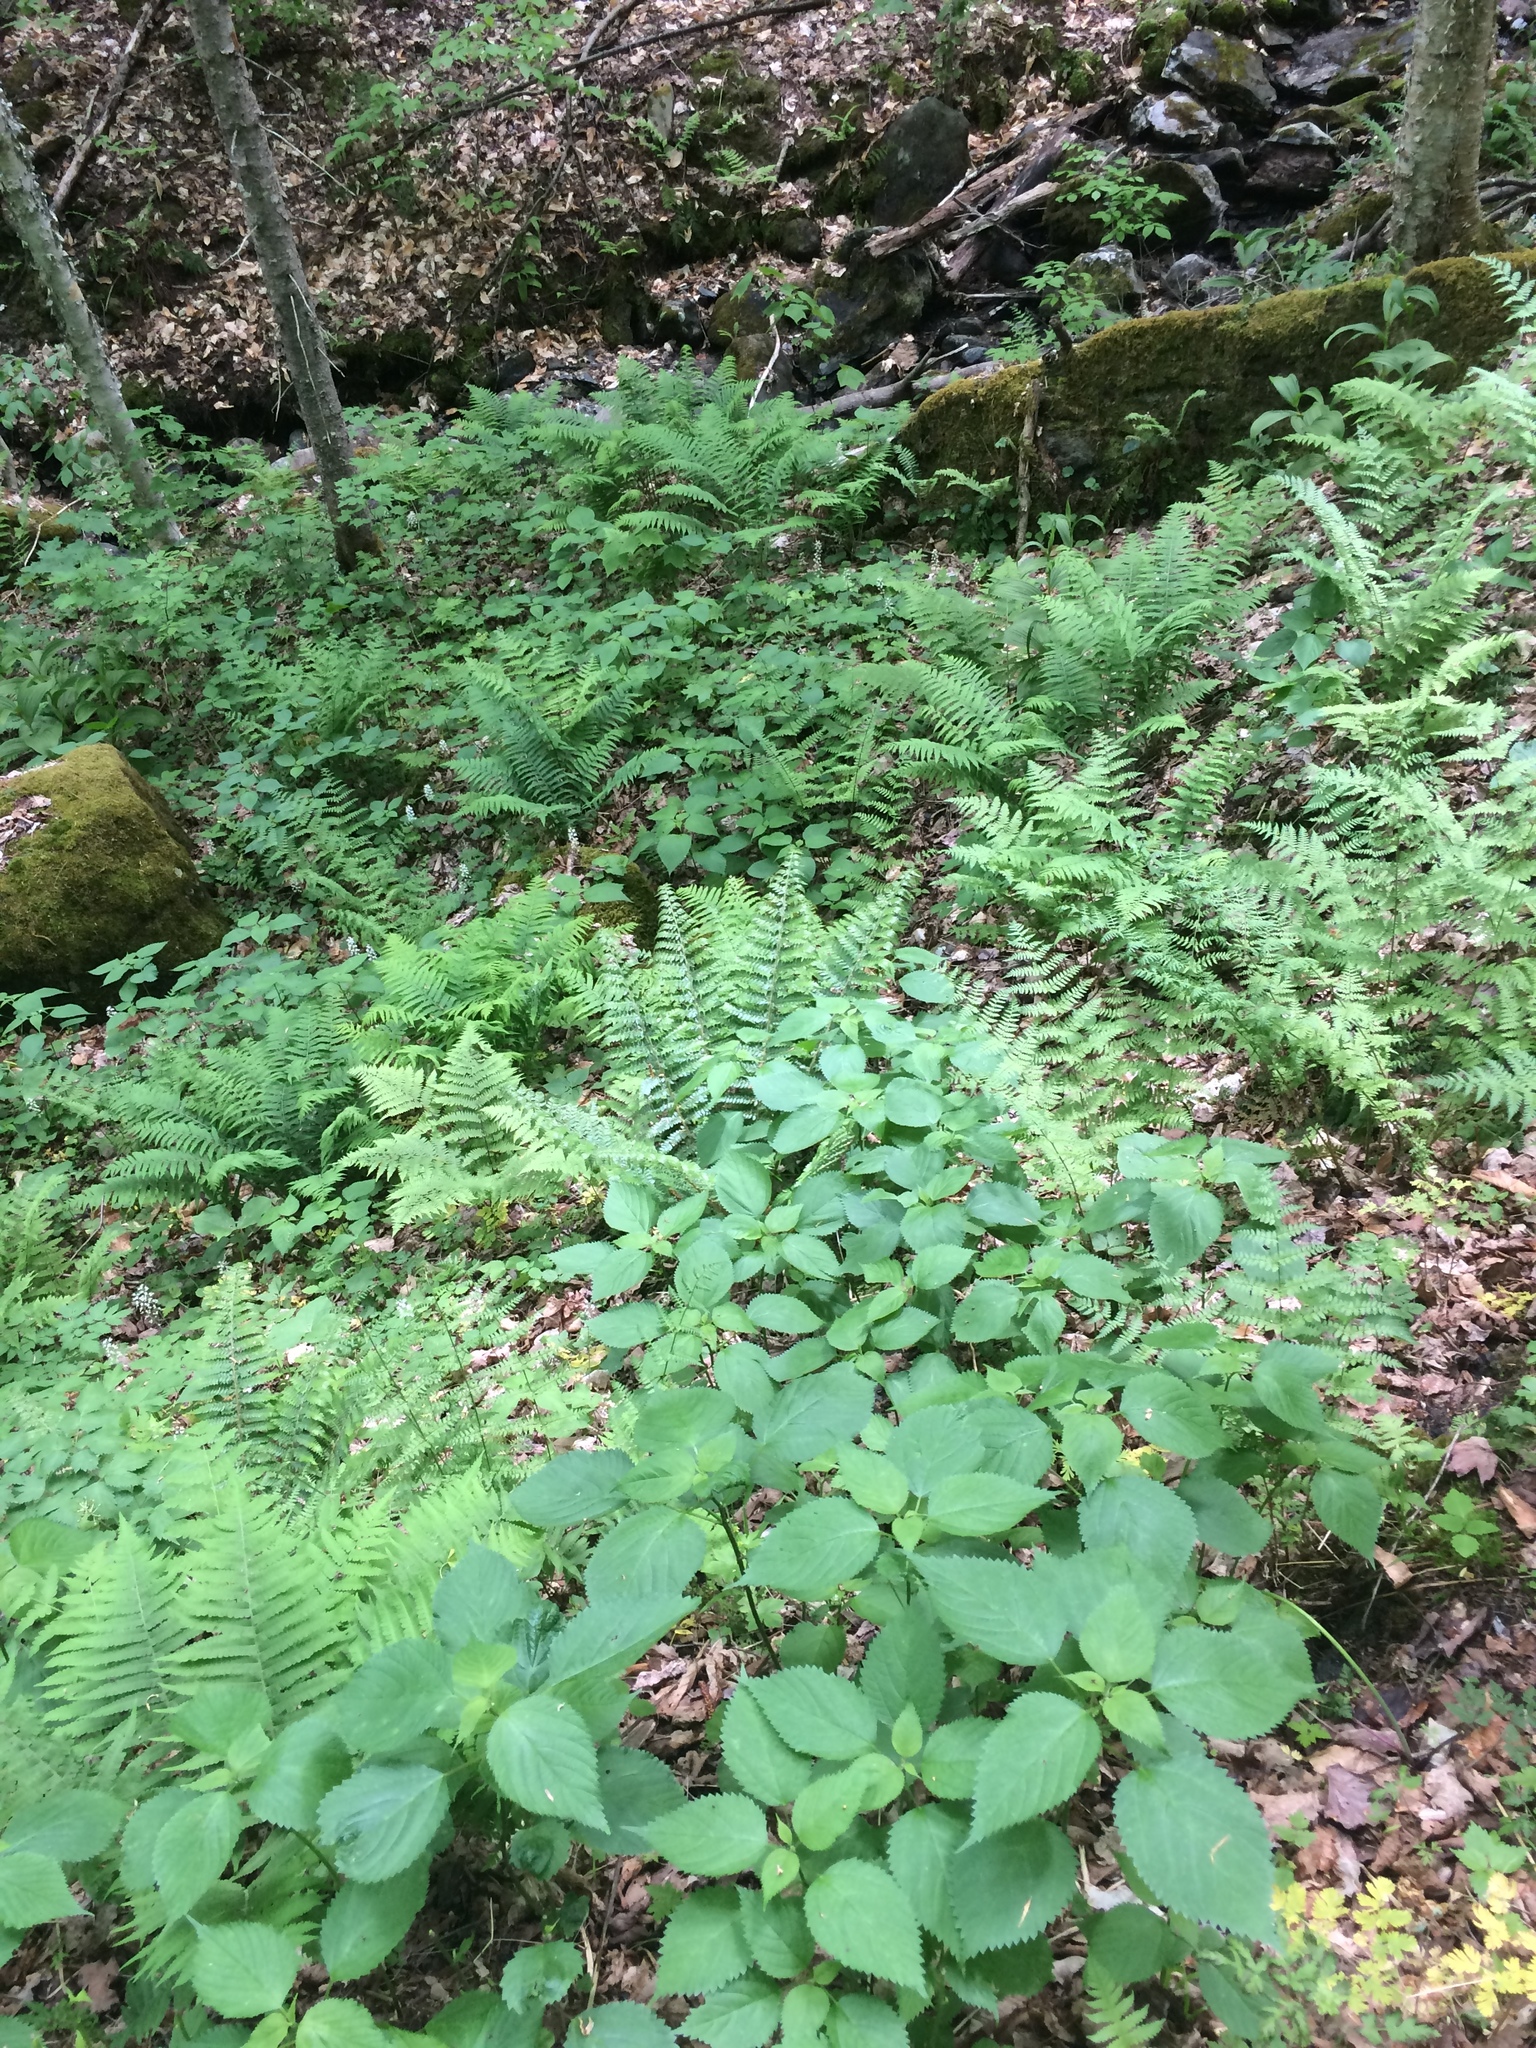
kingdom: Plantae
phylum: Tracheophyta
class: Magnoliopsida
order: Rosales
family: Urticaceae
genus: Laportea
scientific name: Laportea canadensis
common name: Canada nettle
